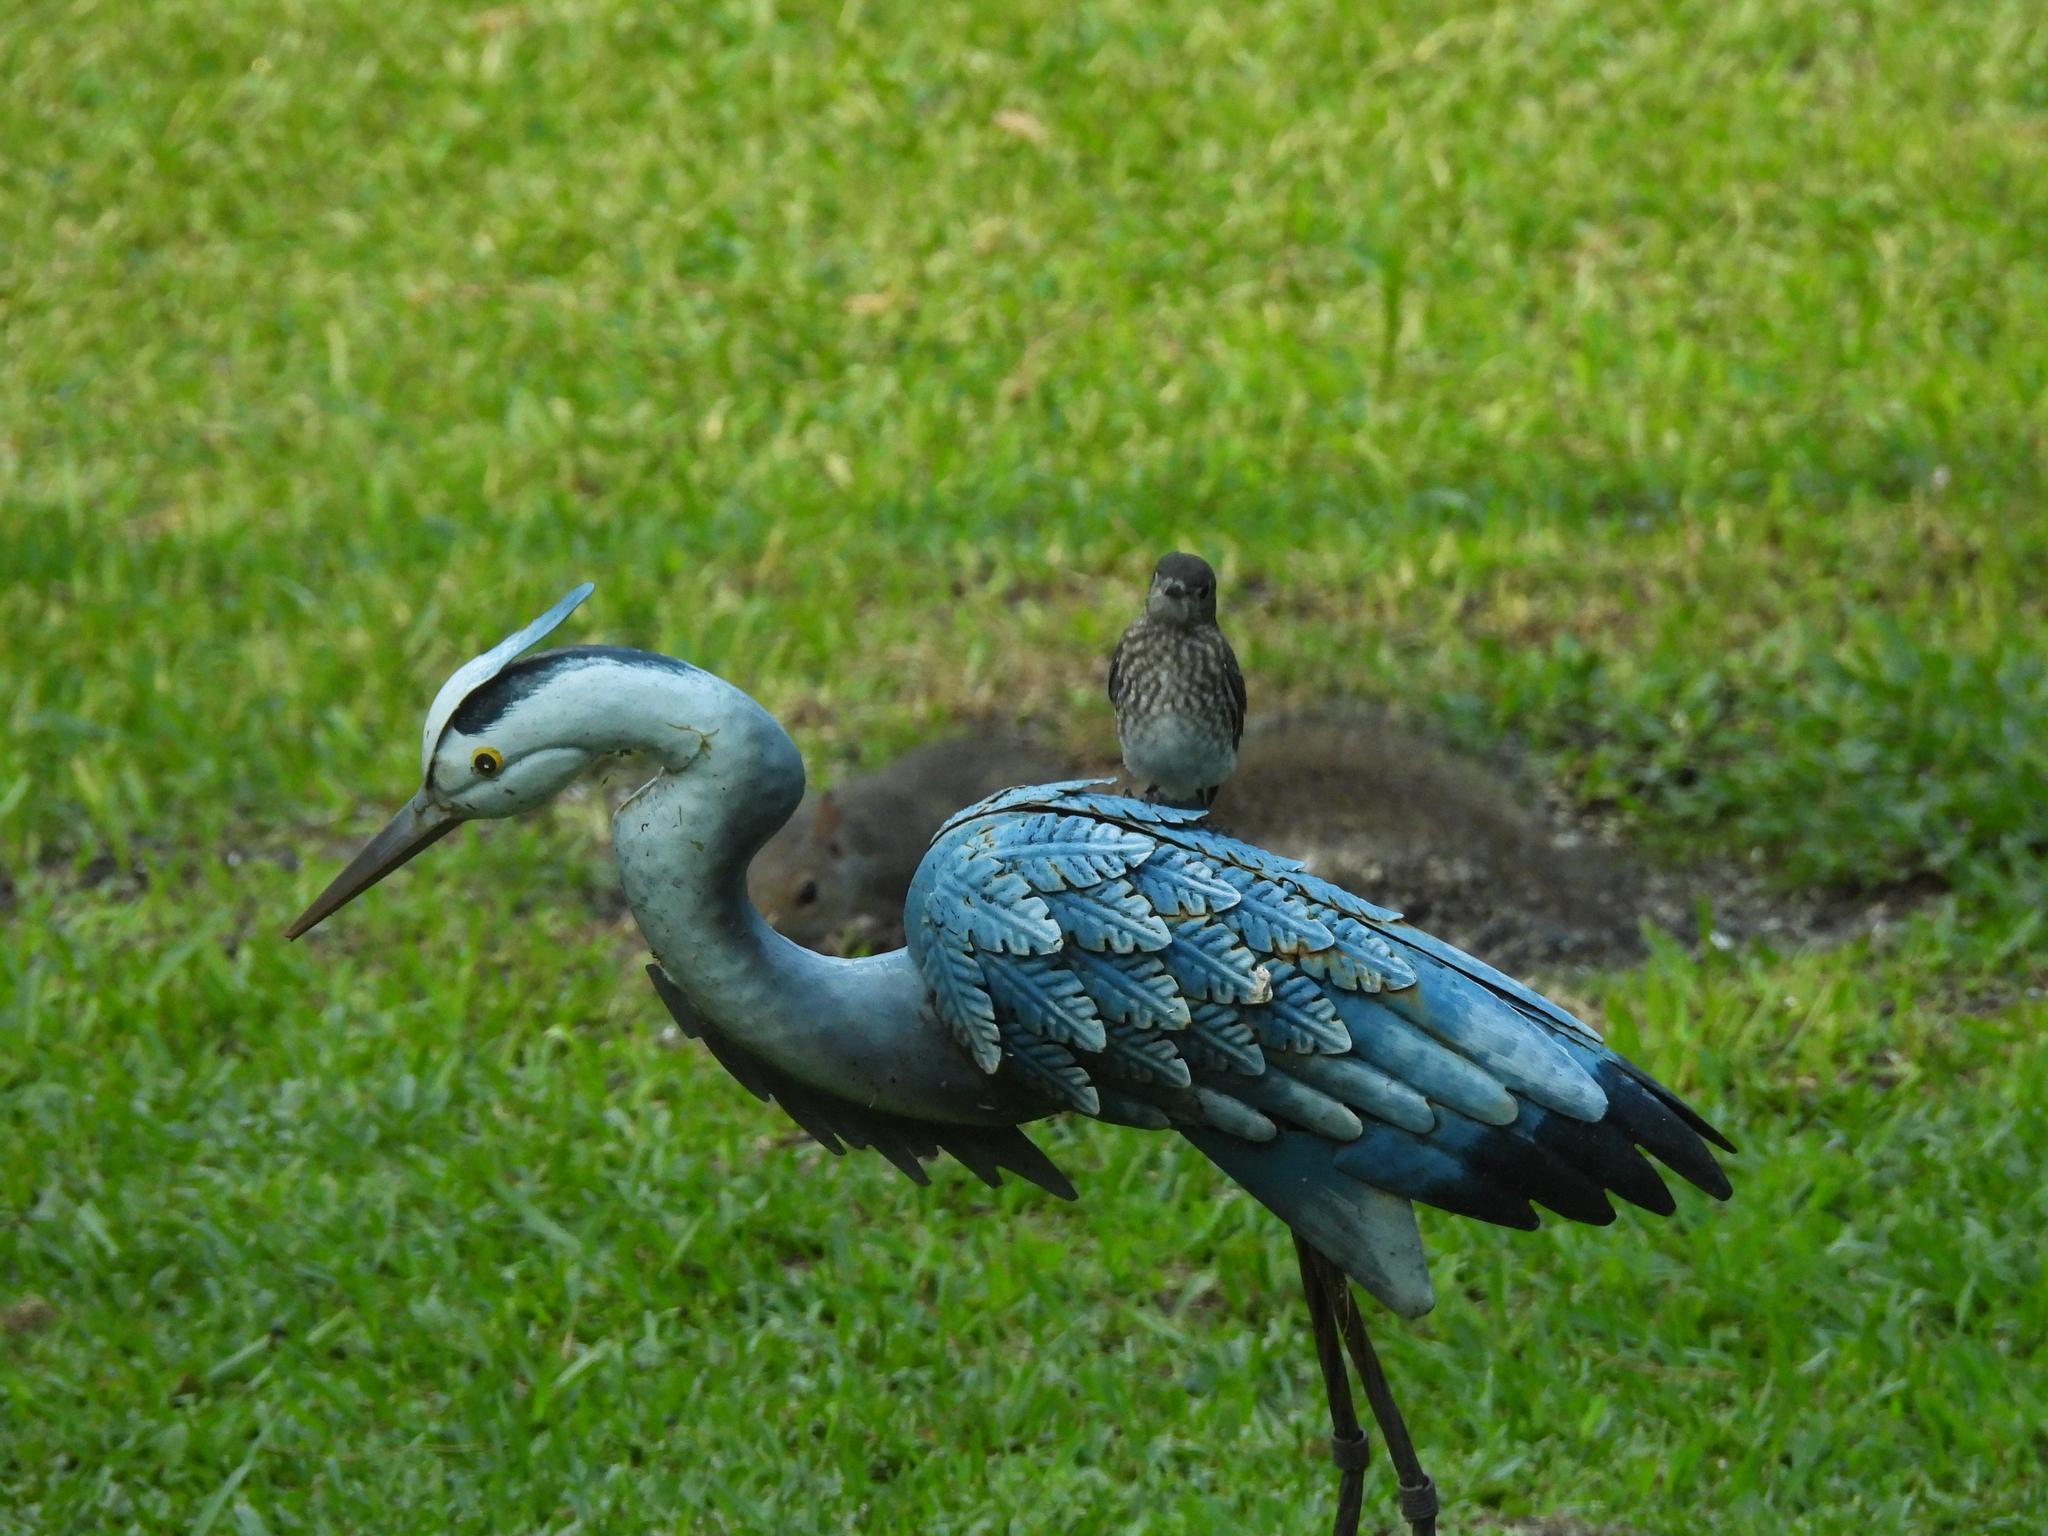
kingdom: Animalia
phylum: Chordata
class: Aves
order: Passeriformes
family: Turdidae
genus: Sialia
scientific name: Sialia sialis
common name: Eastern bluebird
